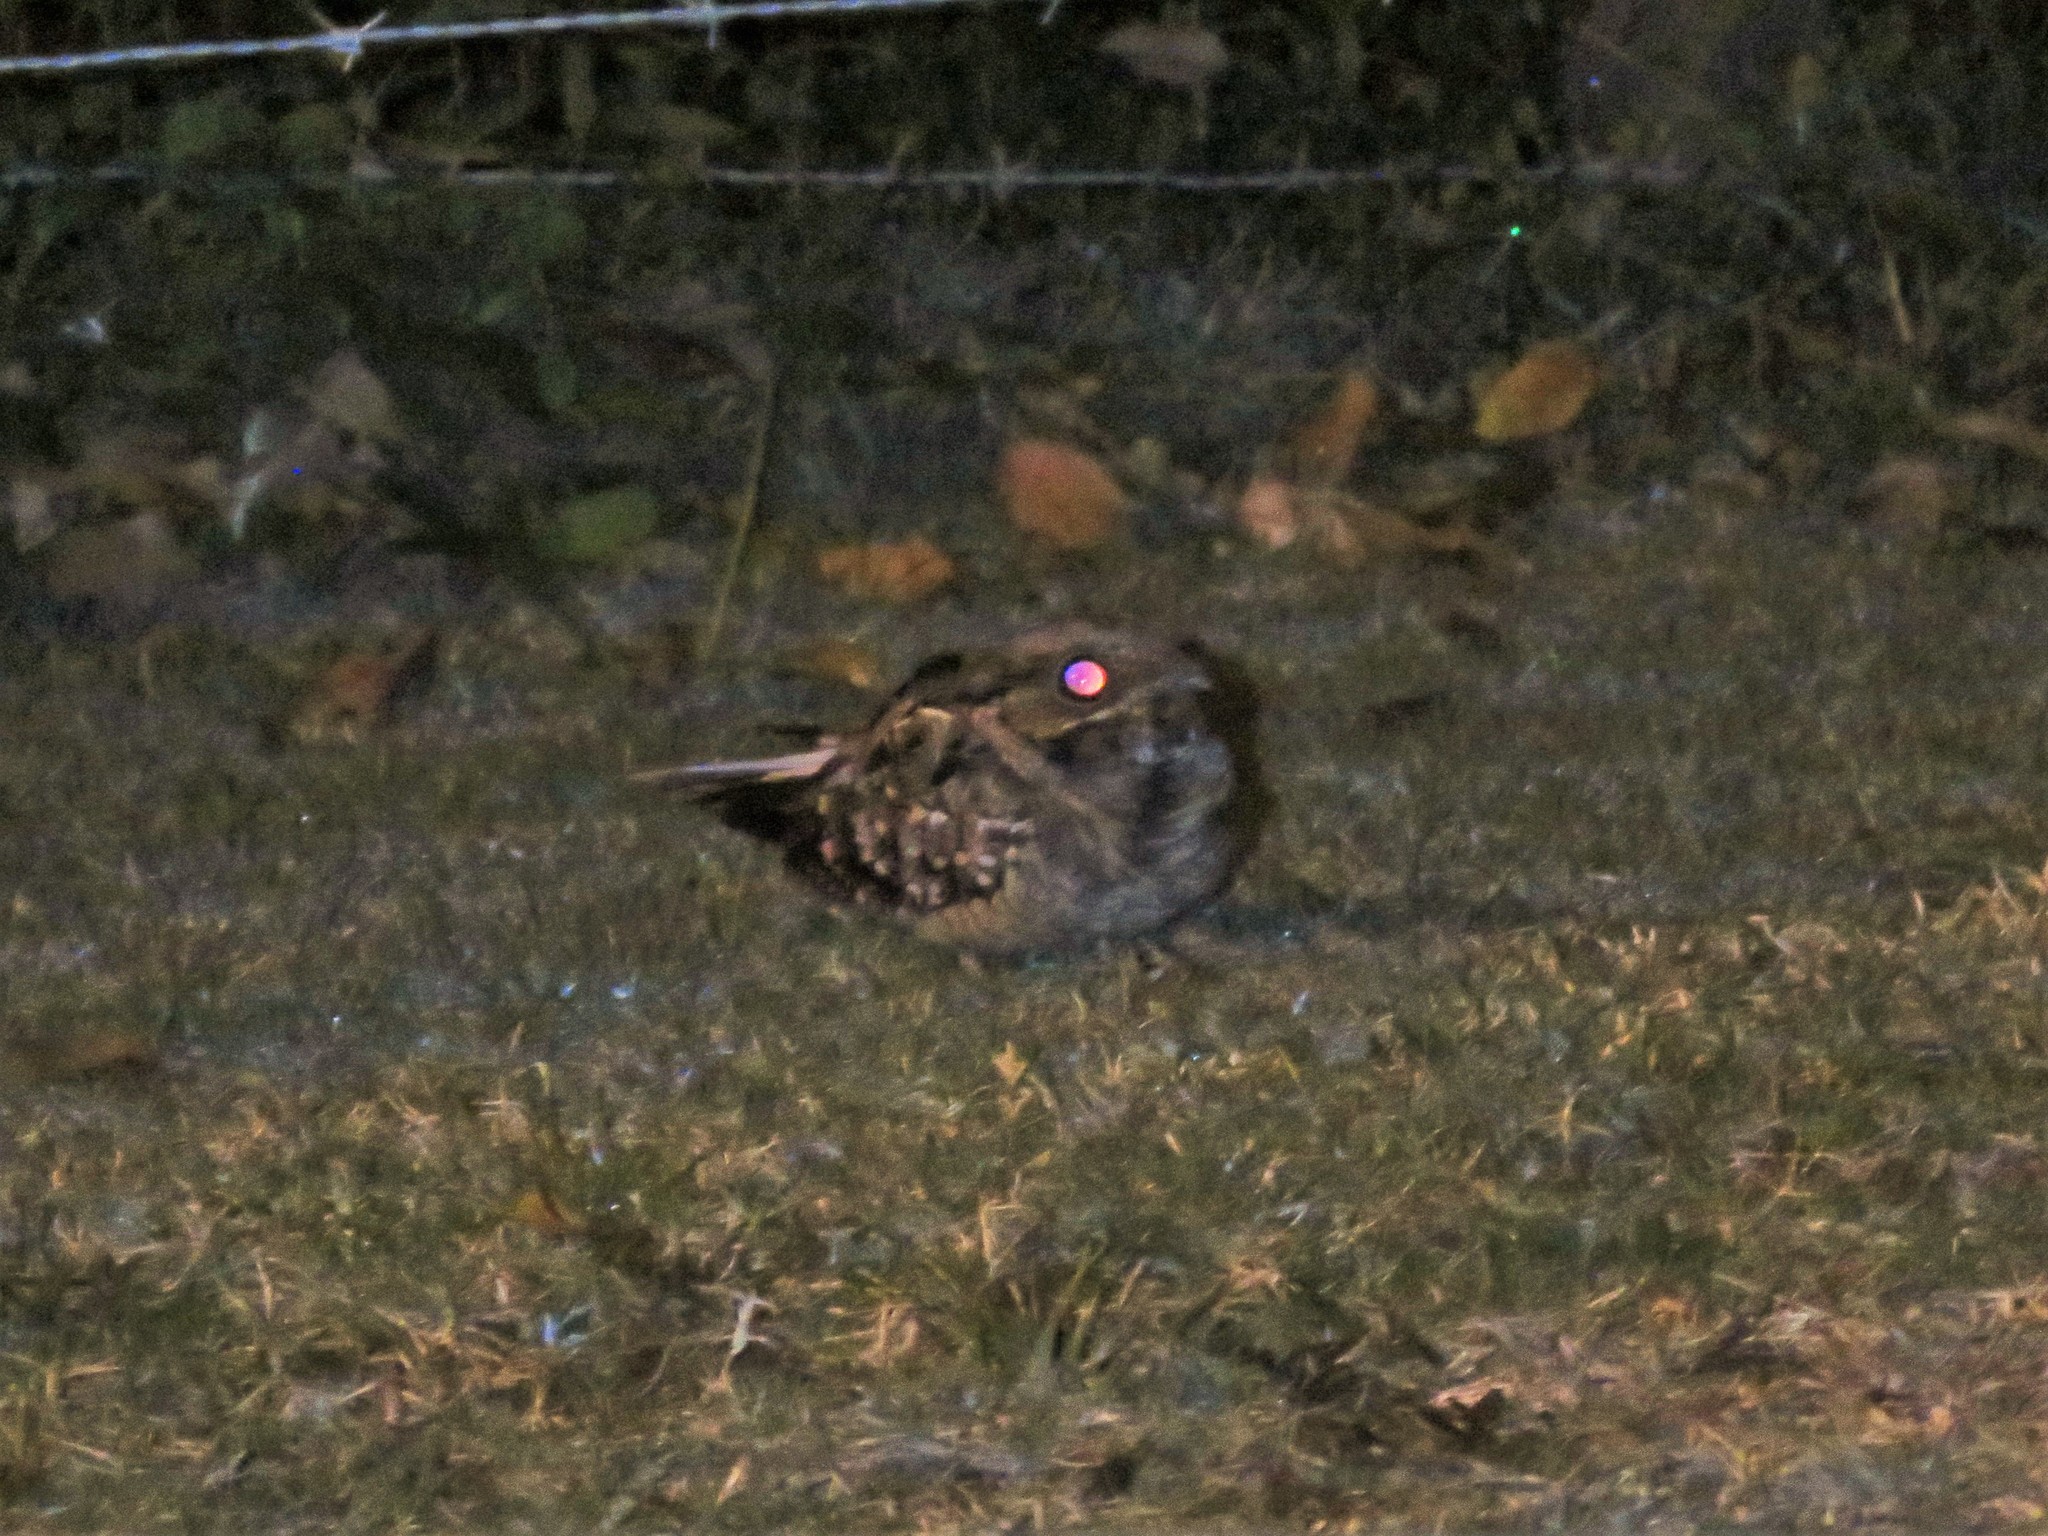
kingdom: Animalia
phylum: Chordata
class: Aves
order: Caprimulgiformes
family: Caprimulgidae
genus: Nyctidromus
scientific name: Nyctidromus albicollis
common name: Pauraque
